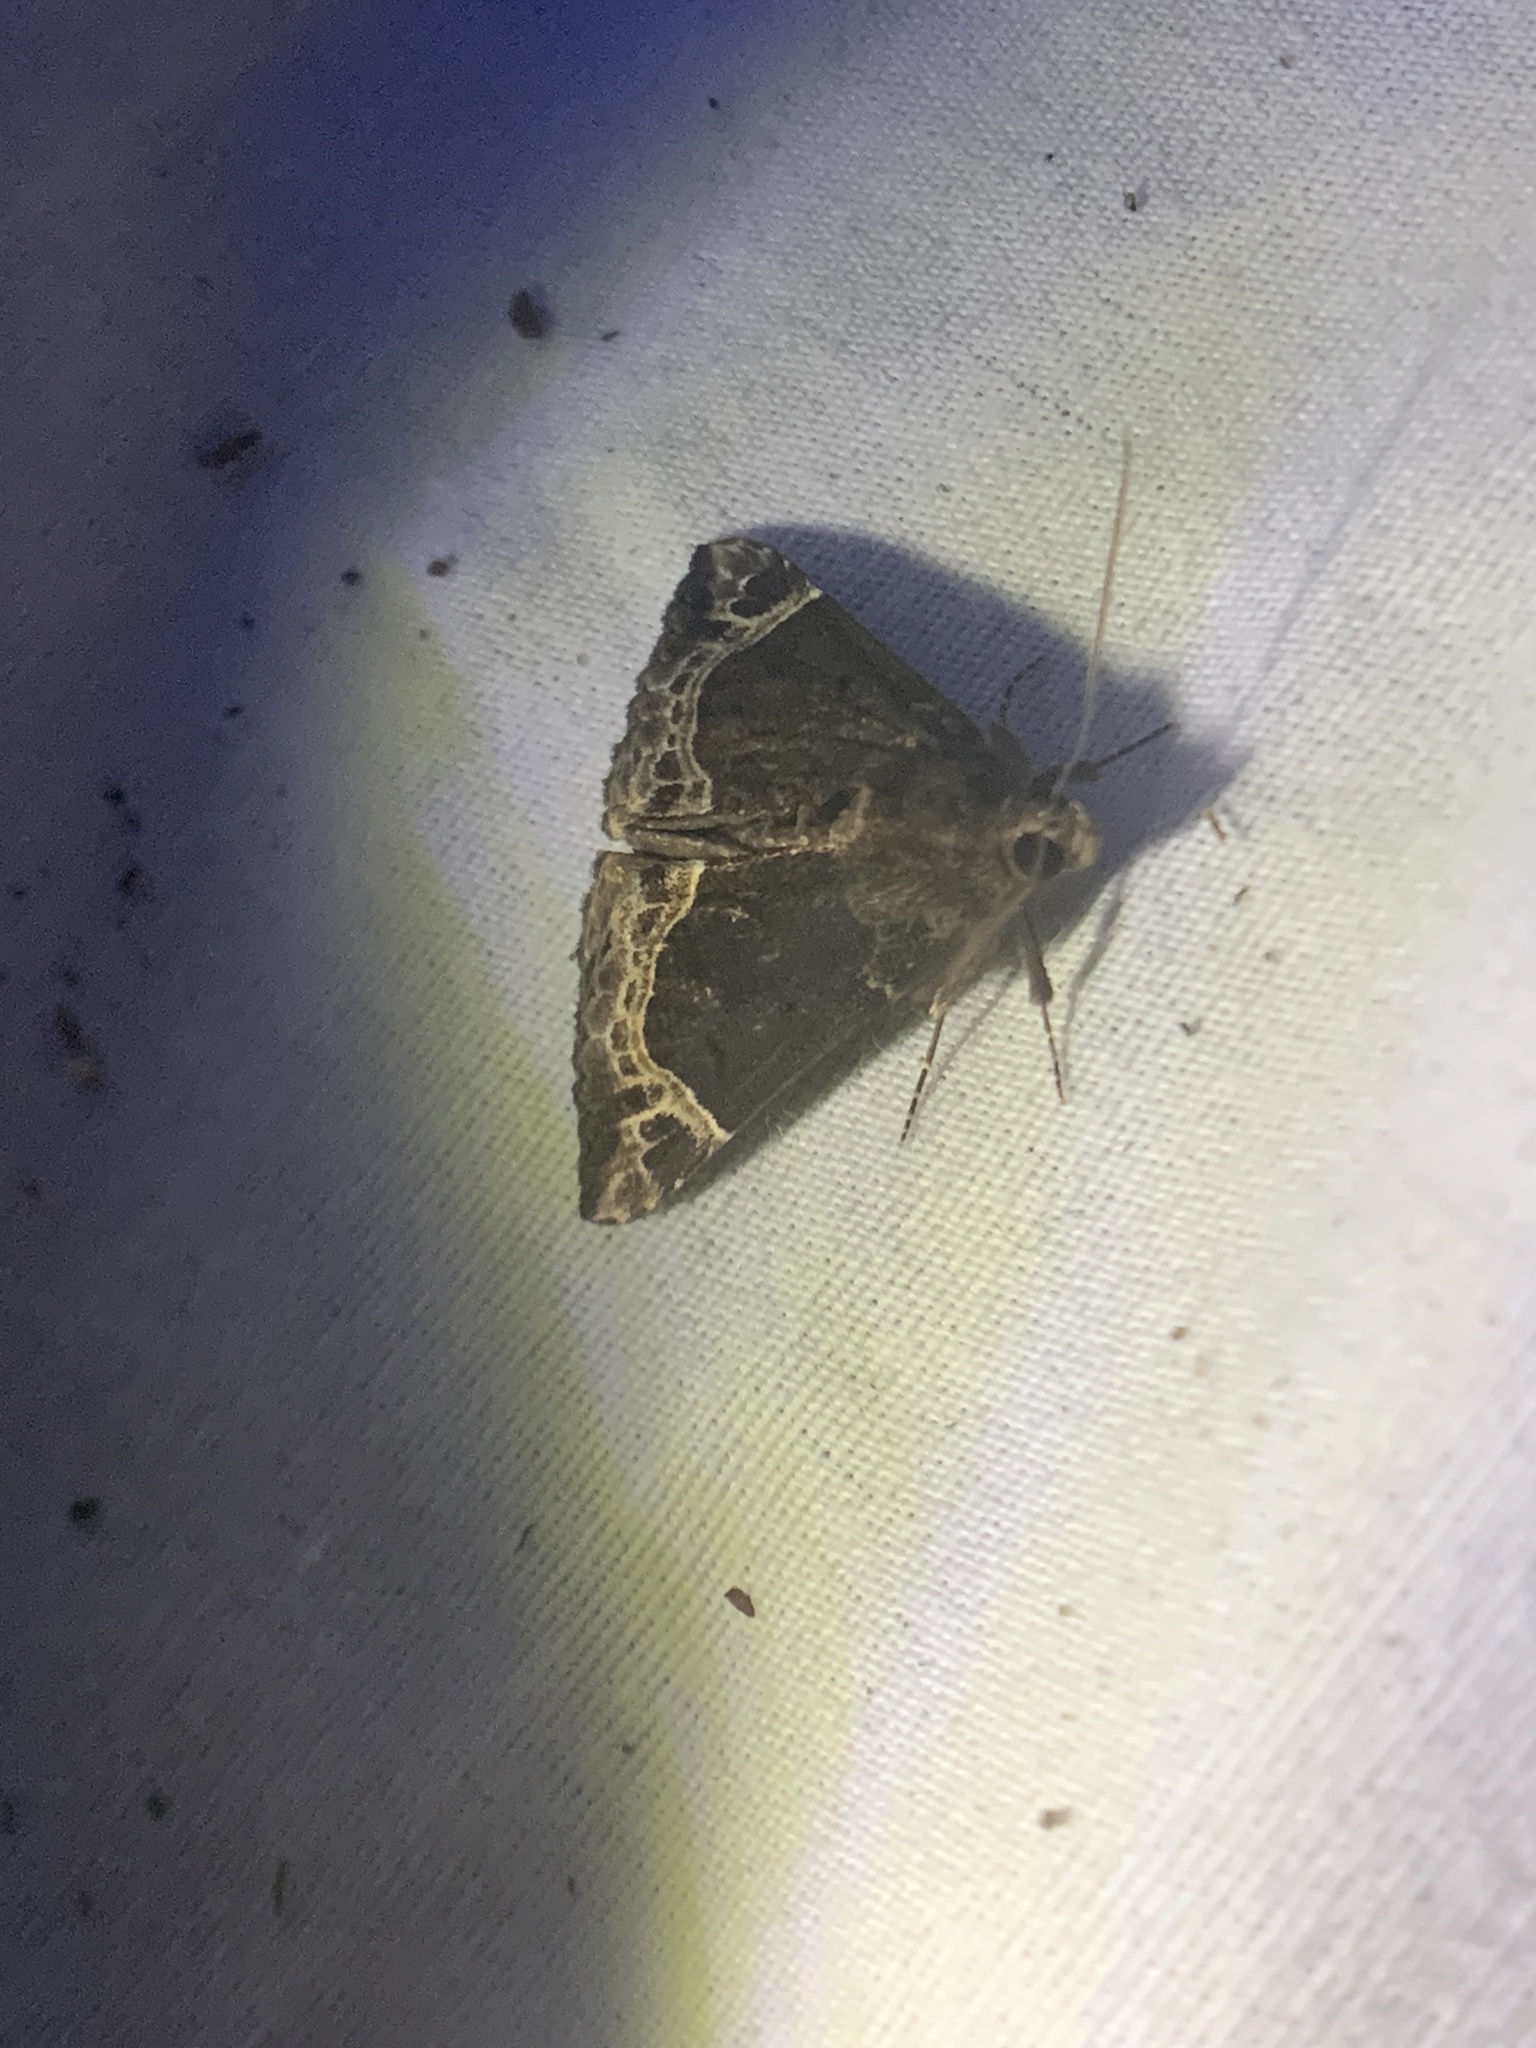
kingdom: Animalia
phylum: Arthropoda
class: Insecta
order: Lepidoptera
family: Erebidae
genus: Hypena
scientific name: Hypena abalienalis
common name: White-lined snout
